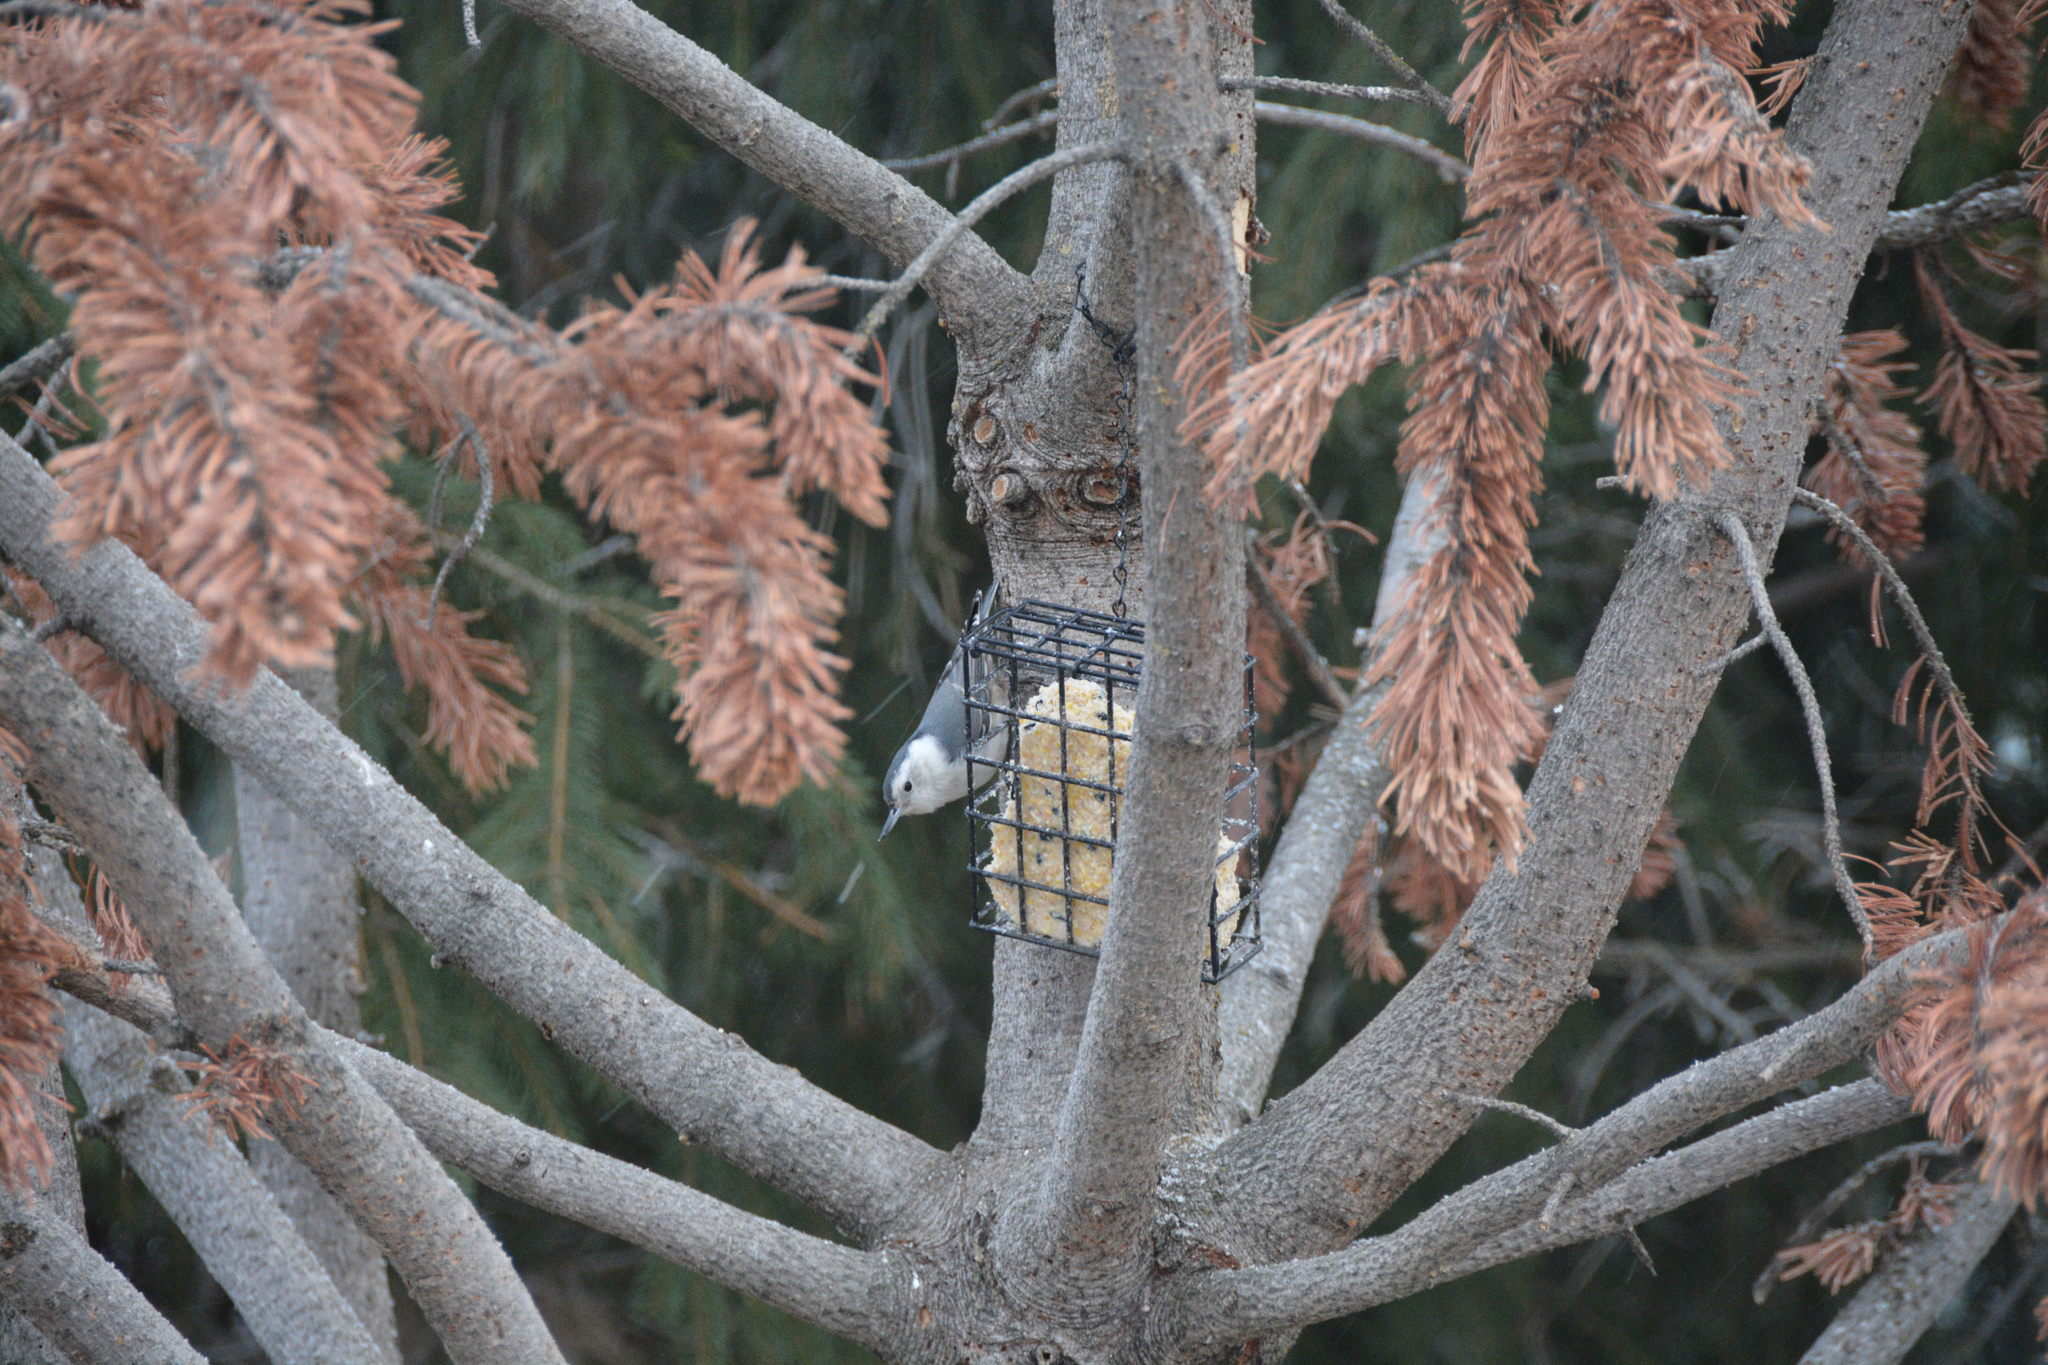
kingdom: Animalia
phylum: Chordata
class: Aves
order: Passeriformes
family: Sittidae
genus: Sitta
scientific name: Sitta carolinensis
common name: White-breasted nuthatch
